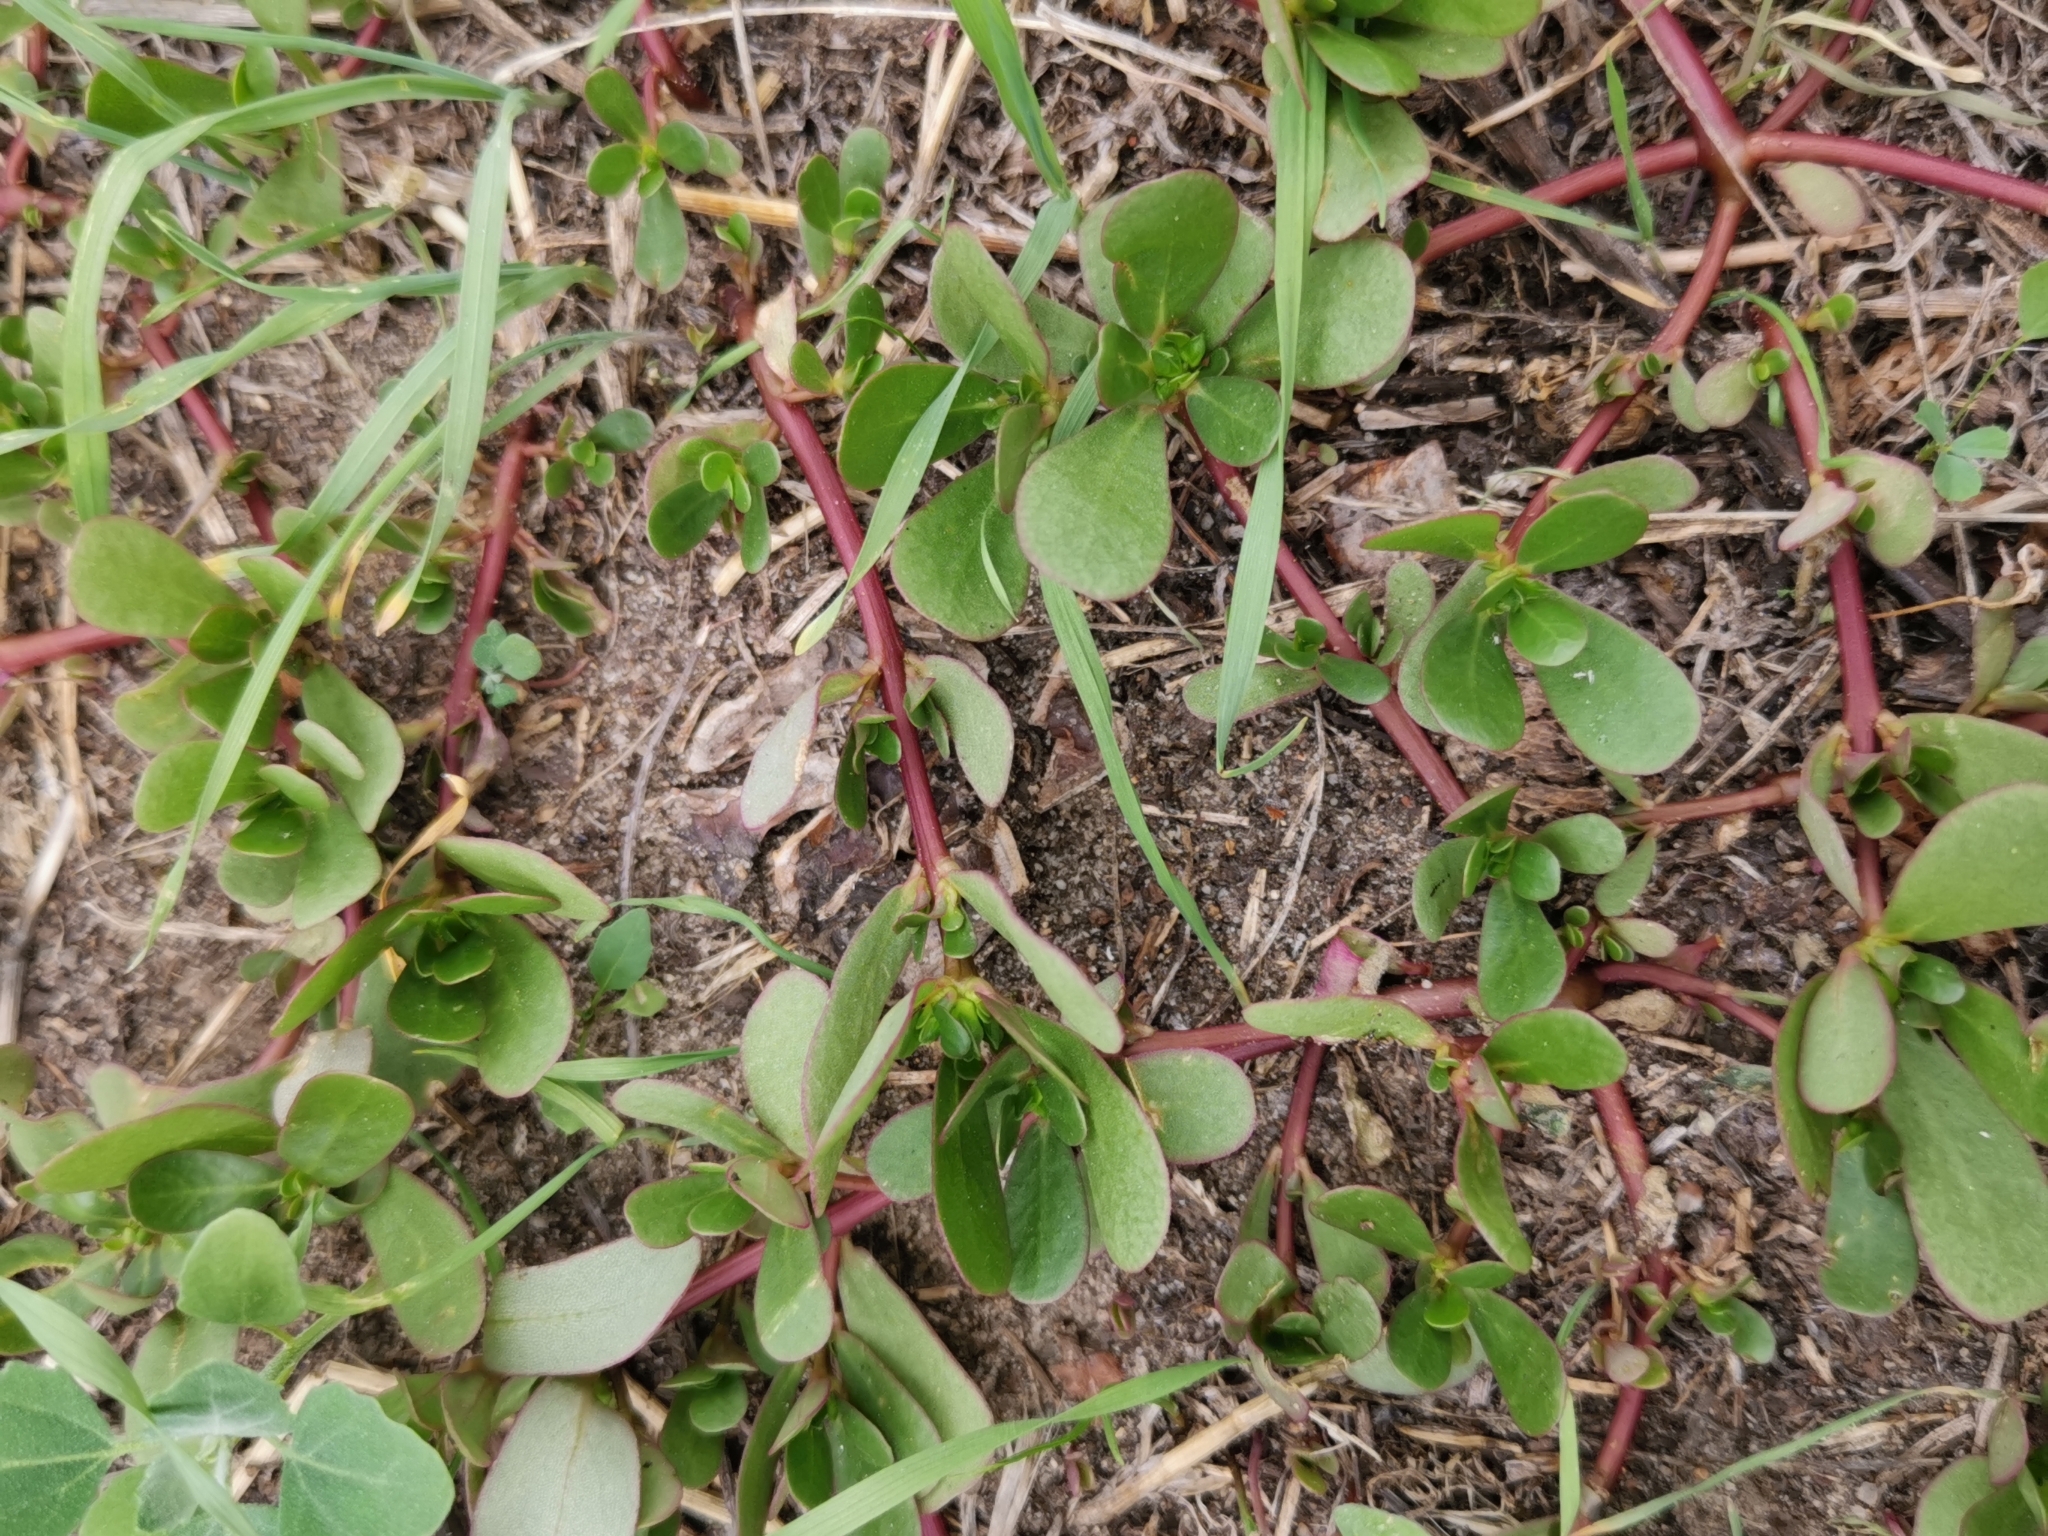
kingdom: Plantae
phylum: Tracheophyta
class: Magnoliopsida
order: Caryophyllales
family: Portulacaceae
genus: Portulaca
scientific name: Portulaca oleracea
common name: Common purslane
